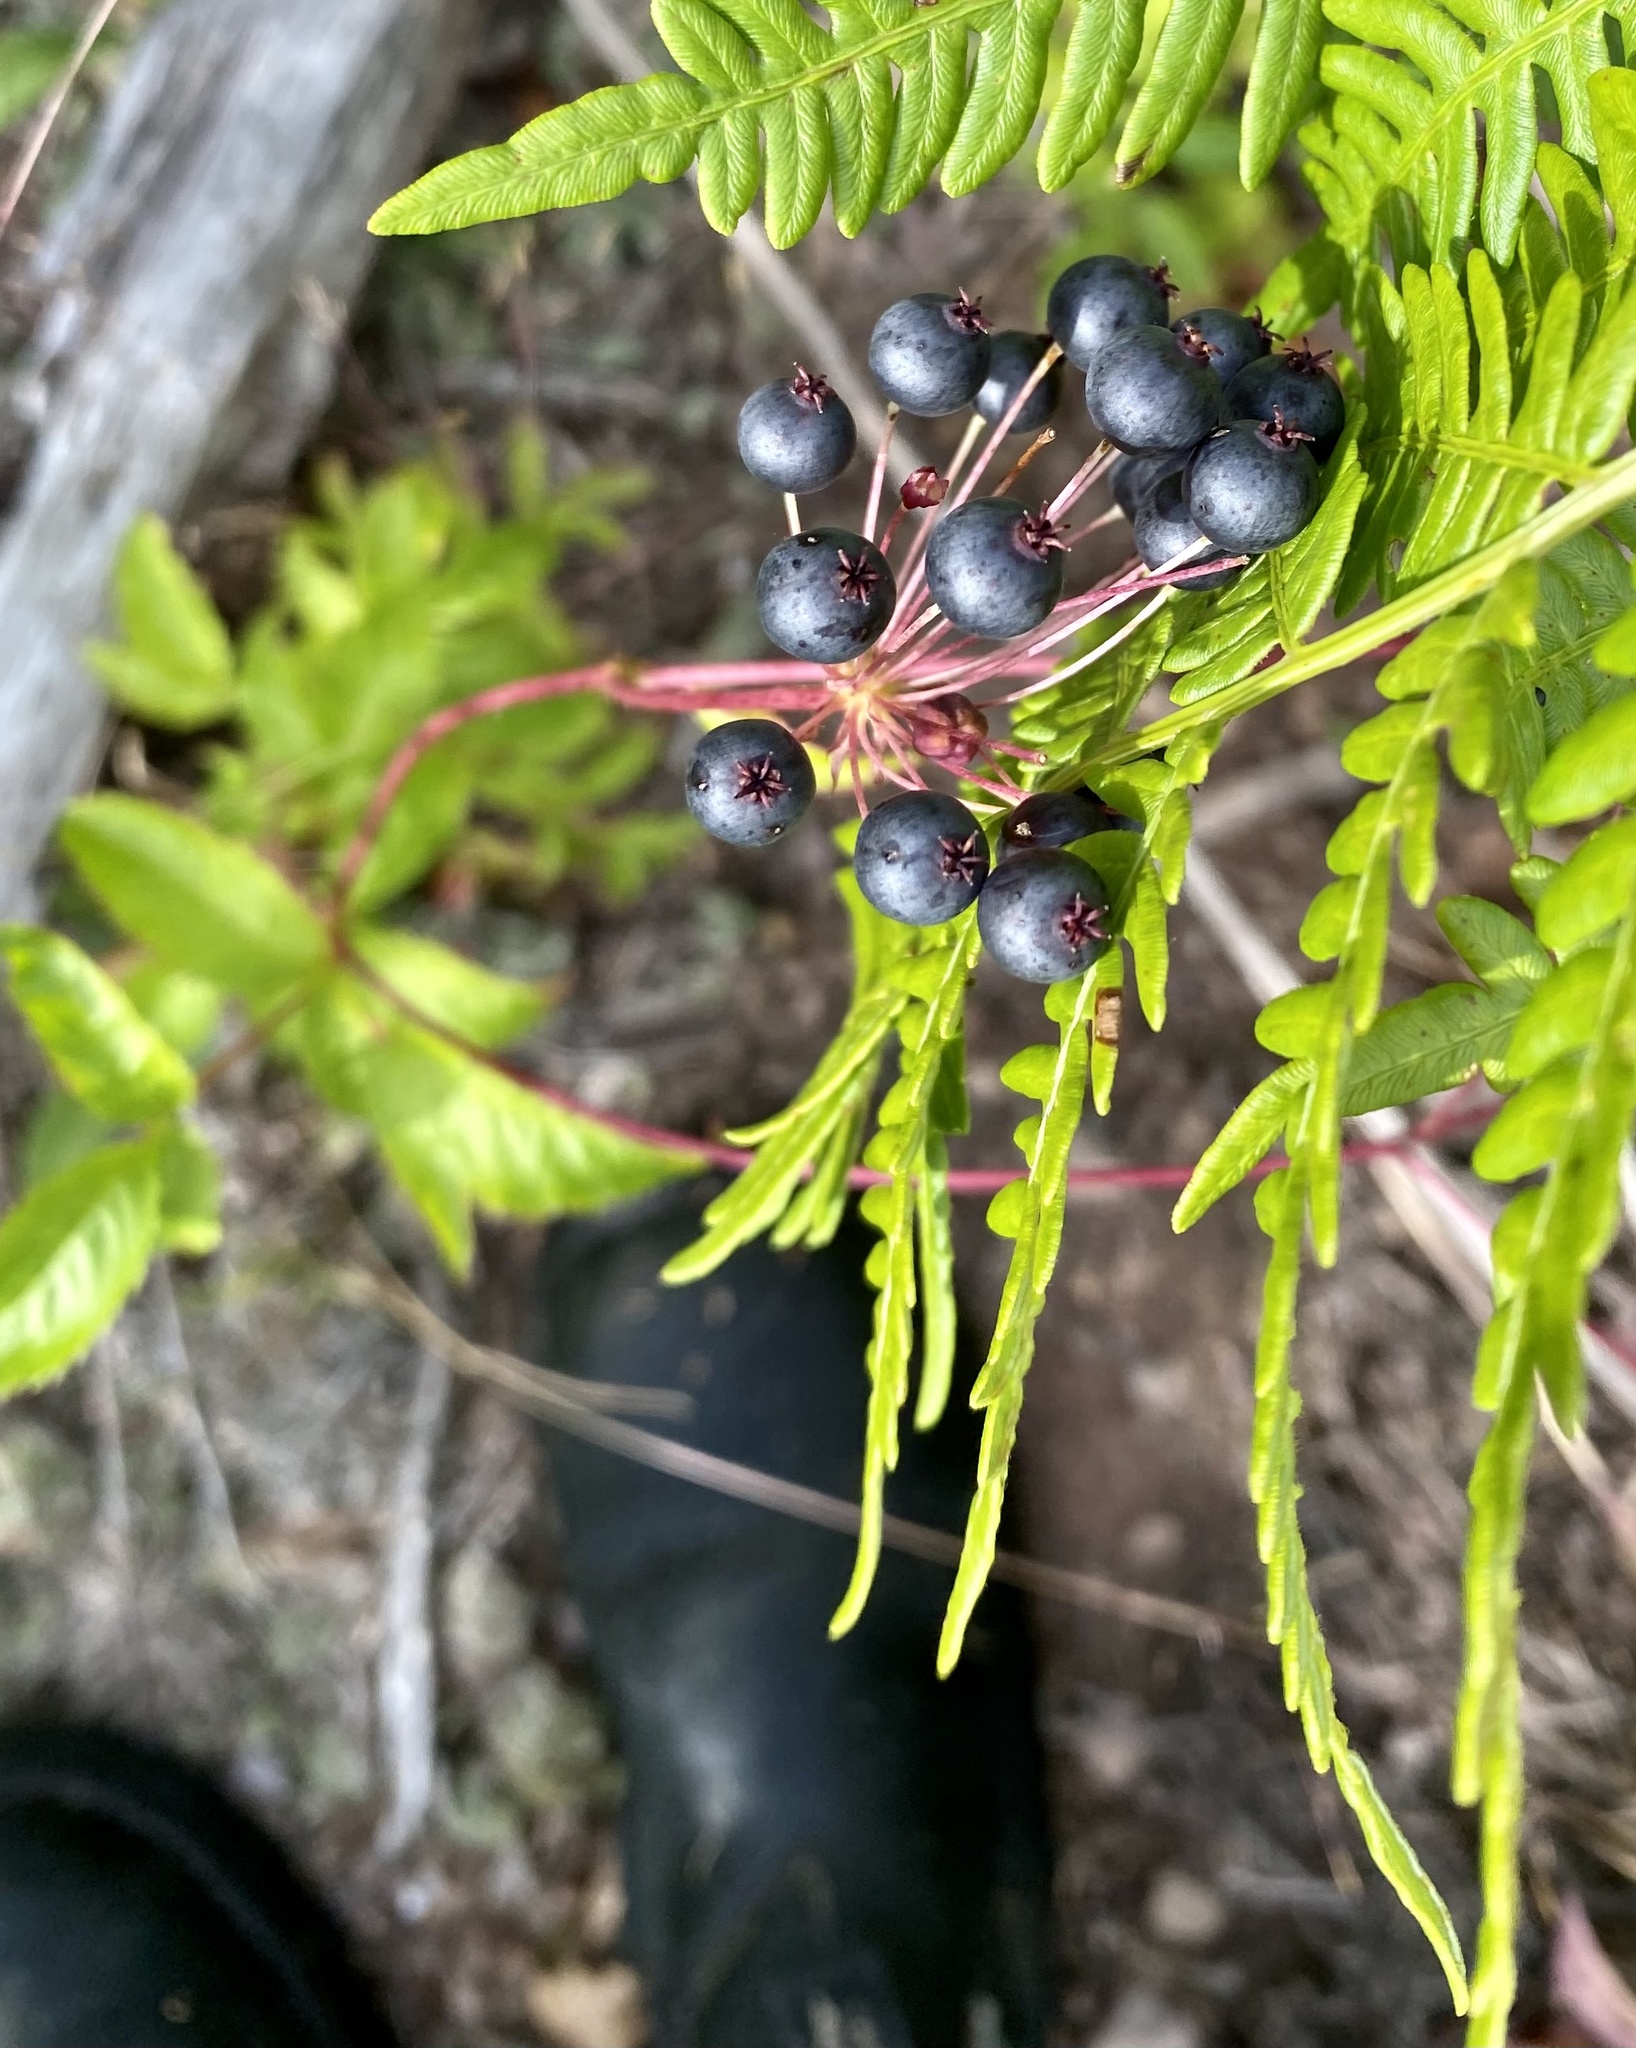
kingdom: Plantae
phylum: Tracheophyta
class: Magnoliopsida
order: Apiales
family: Araliaceae
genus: Aralia
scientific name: Aralia hispida
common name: Bristly sarsaparilla
